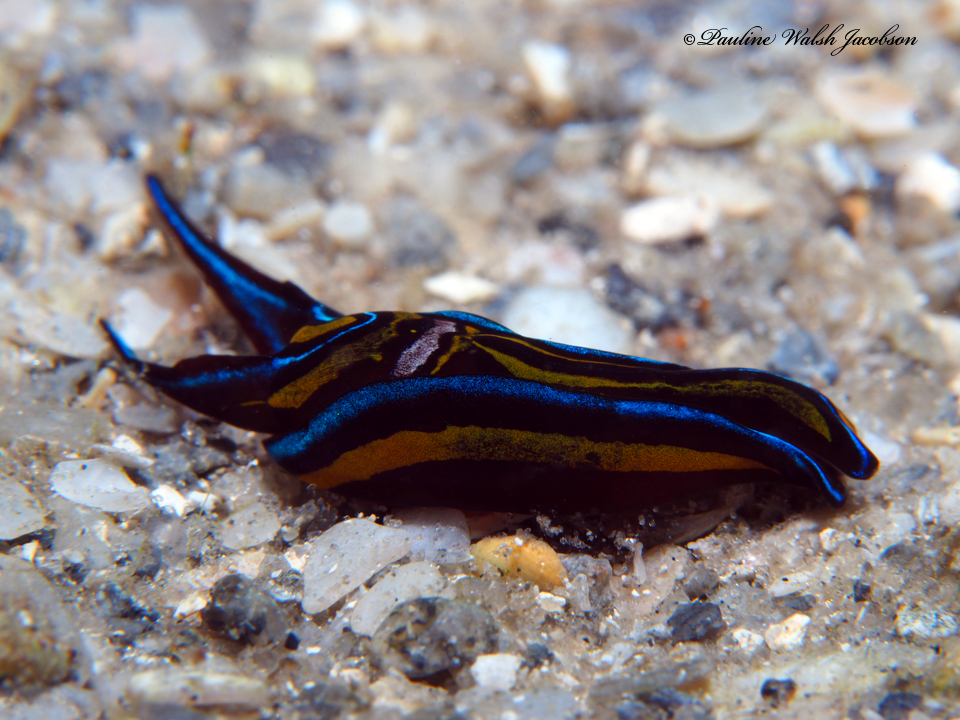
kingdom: Animalia
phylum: Mollusca
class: Gastropoda
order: Cephalaspidea
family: Aglajidae
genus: Chelidonura
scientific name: Chelidonura hirundinina
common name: Leech headshield slug
